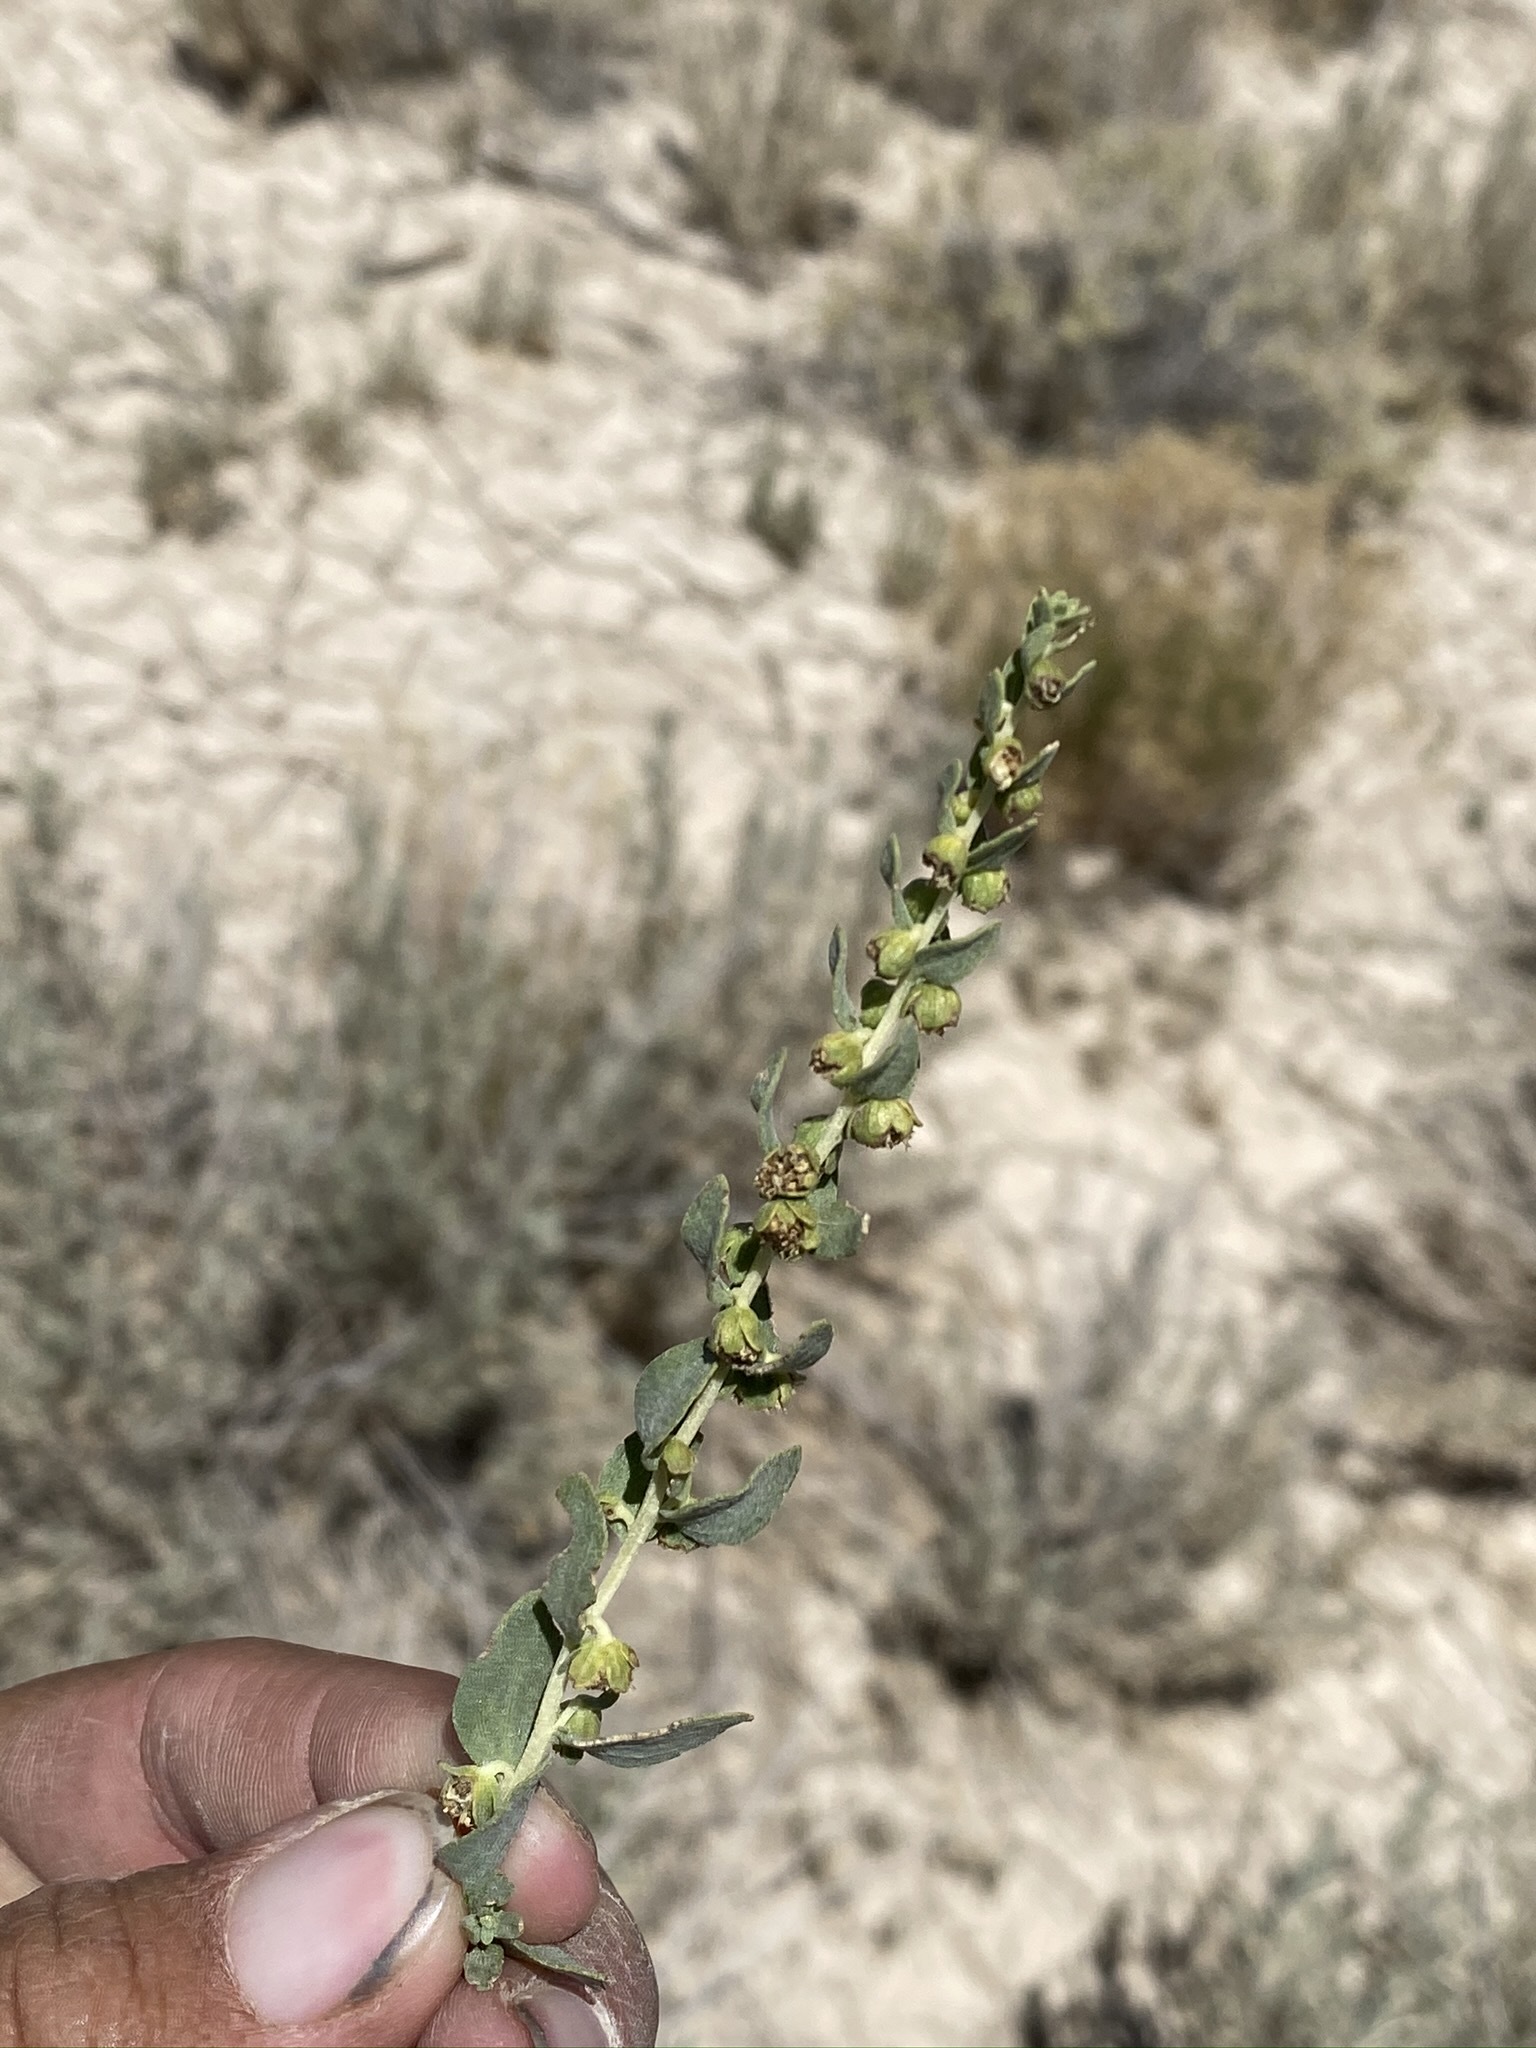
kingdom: Plantae
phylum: Tracheophyta
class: Magnoliopsida
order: Asterales
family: Asteraceae
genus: Iva
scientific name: Iva axillaris
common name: Poverty sumpweed
